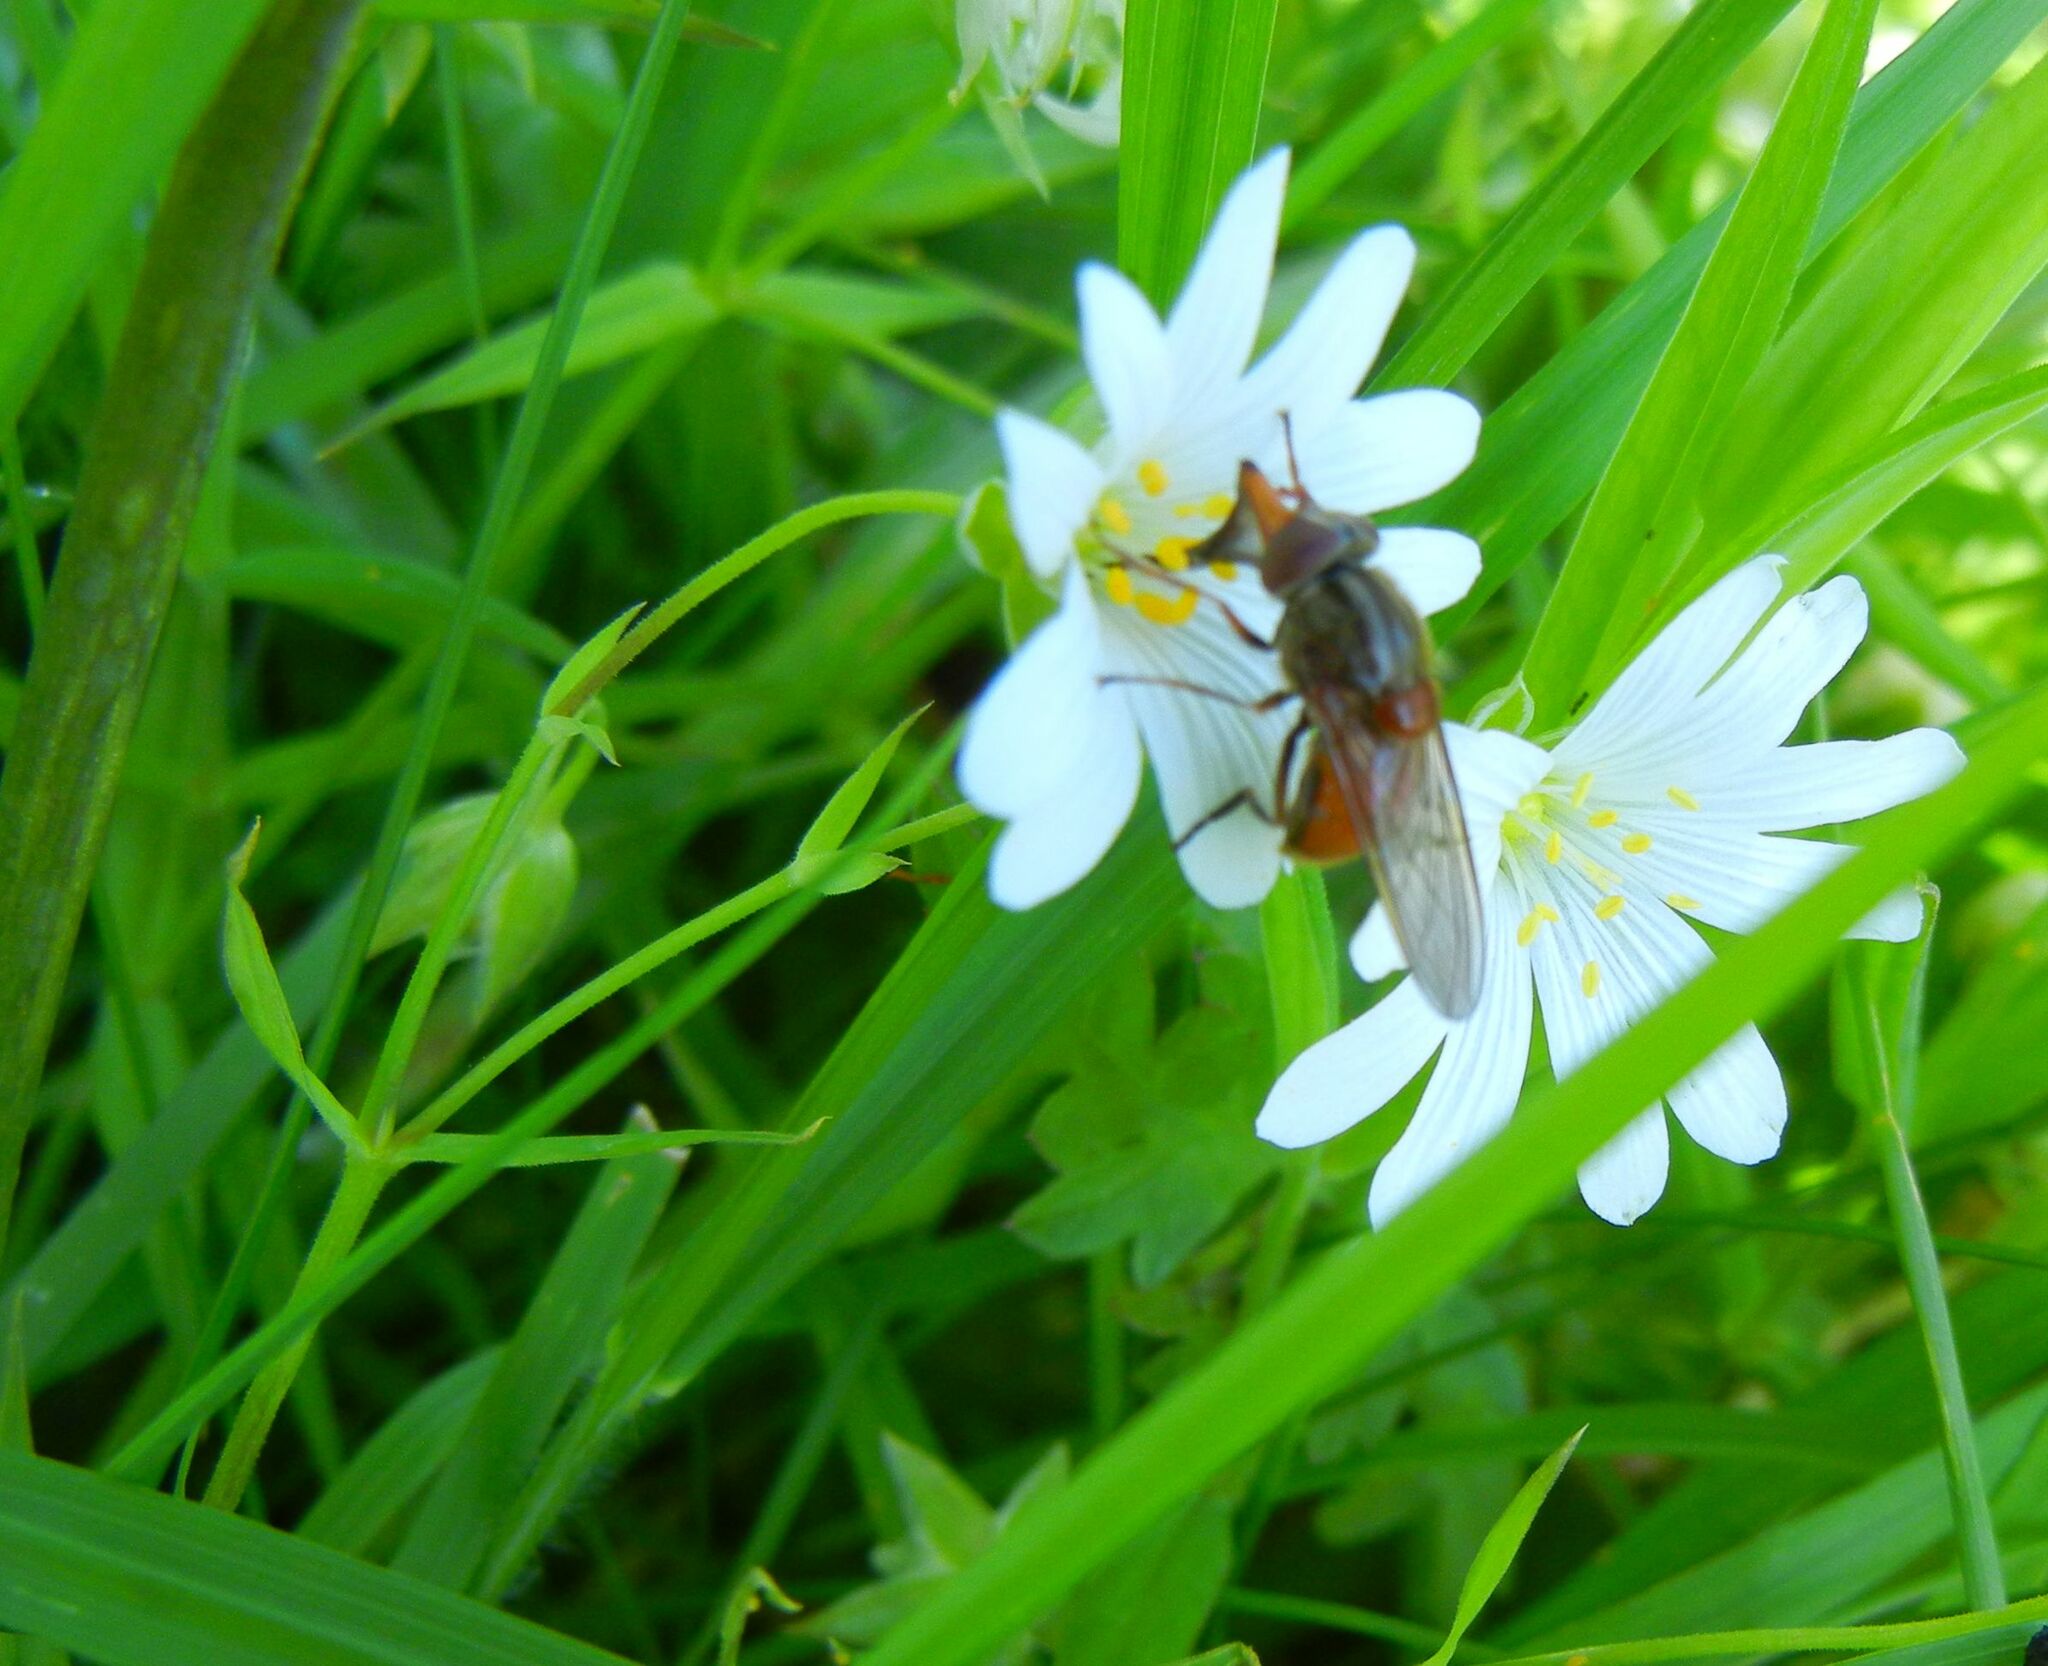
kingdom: Plantae
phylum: Tracheophyta
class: Magnoliopsida
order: Caryophyllales
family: Caryophyllaceae
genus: Rabelera
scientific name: Rabelera holostea
